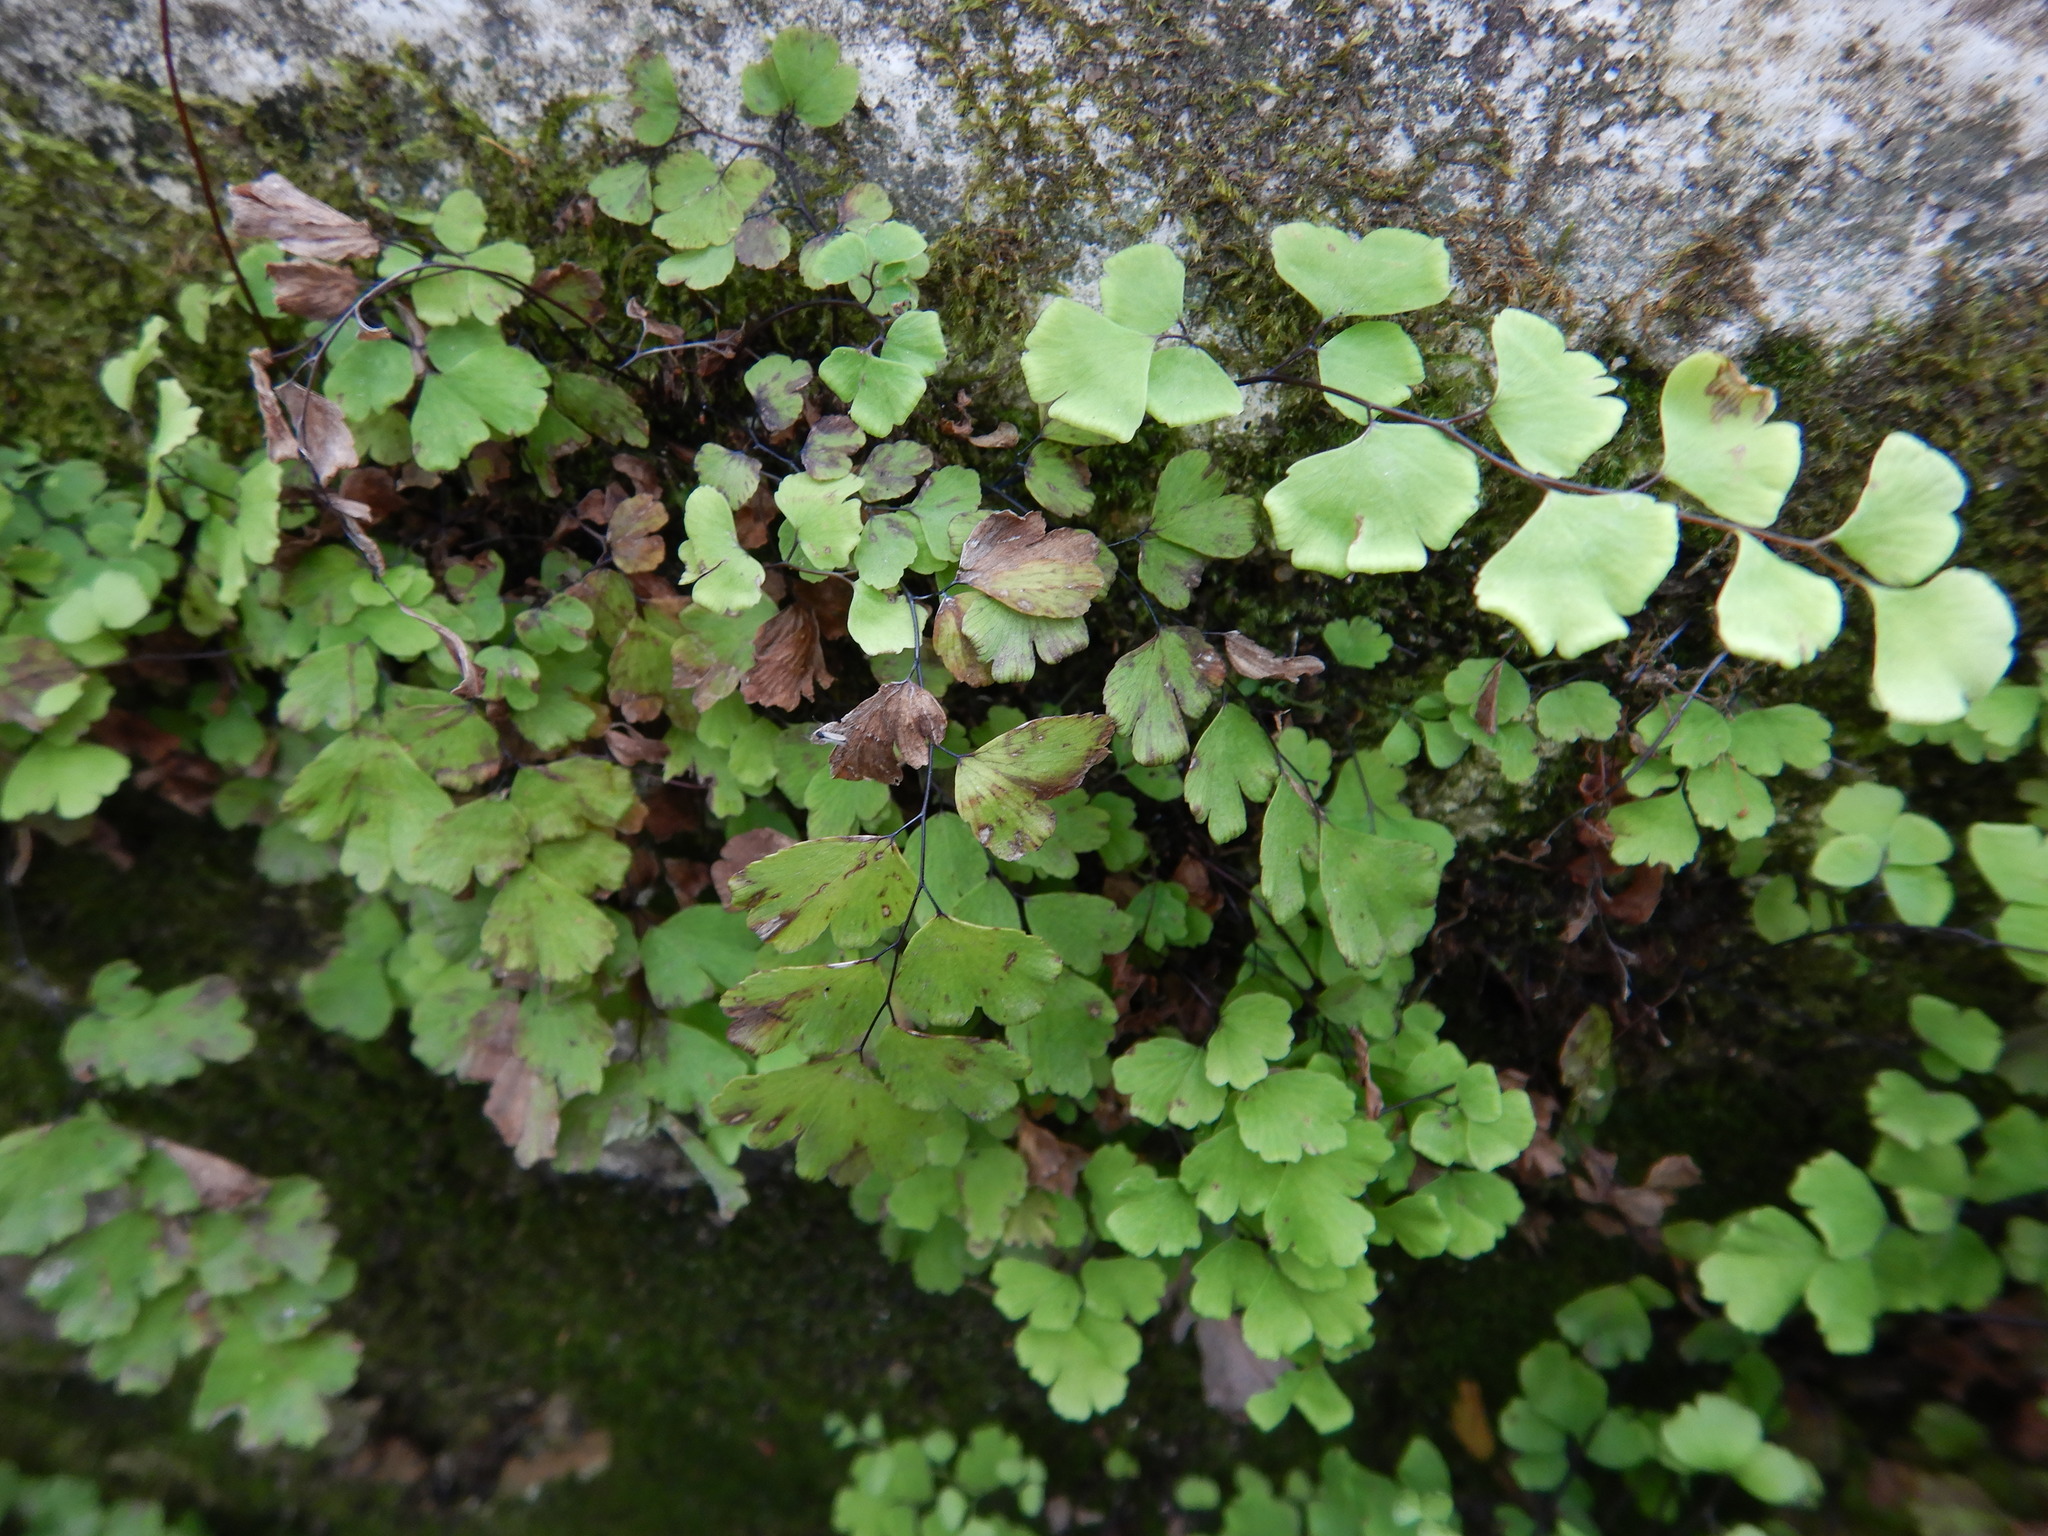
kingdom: Plantae
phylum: Tracheophyta
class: Polypodiopsida
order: Polypodiales
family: Pteridaceae
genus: Adiantum
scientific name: Adiantum capillus-veneris
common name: Maidenhair fern
